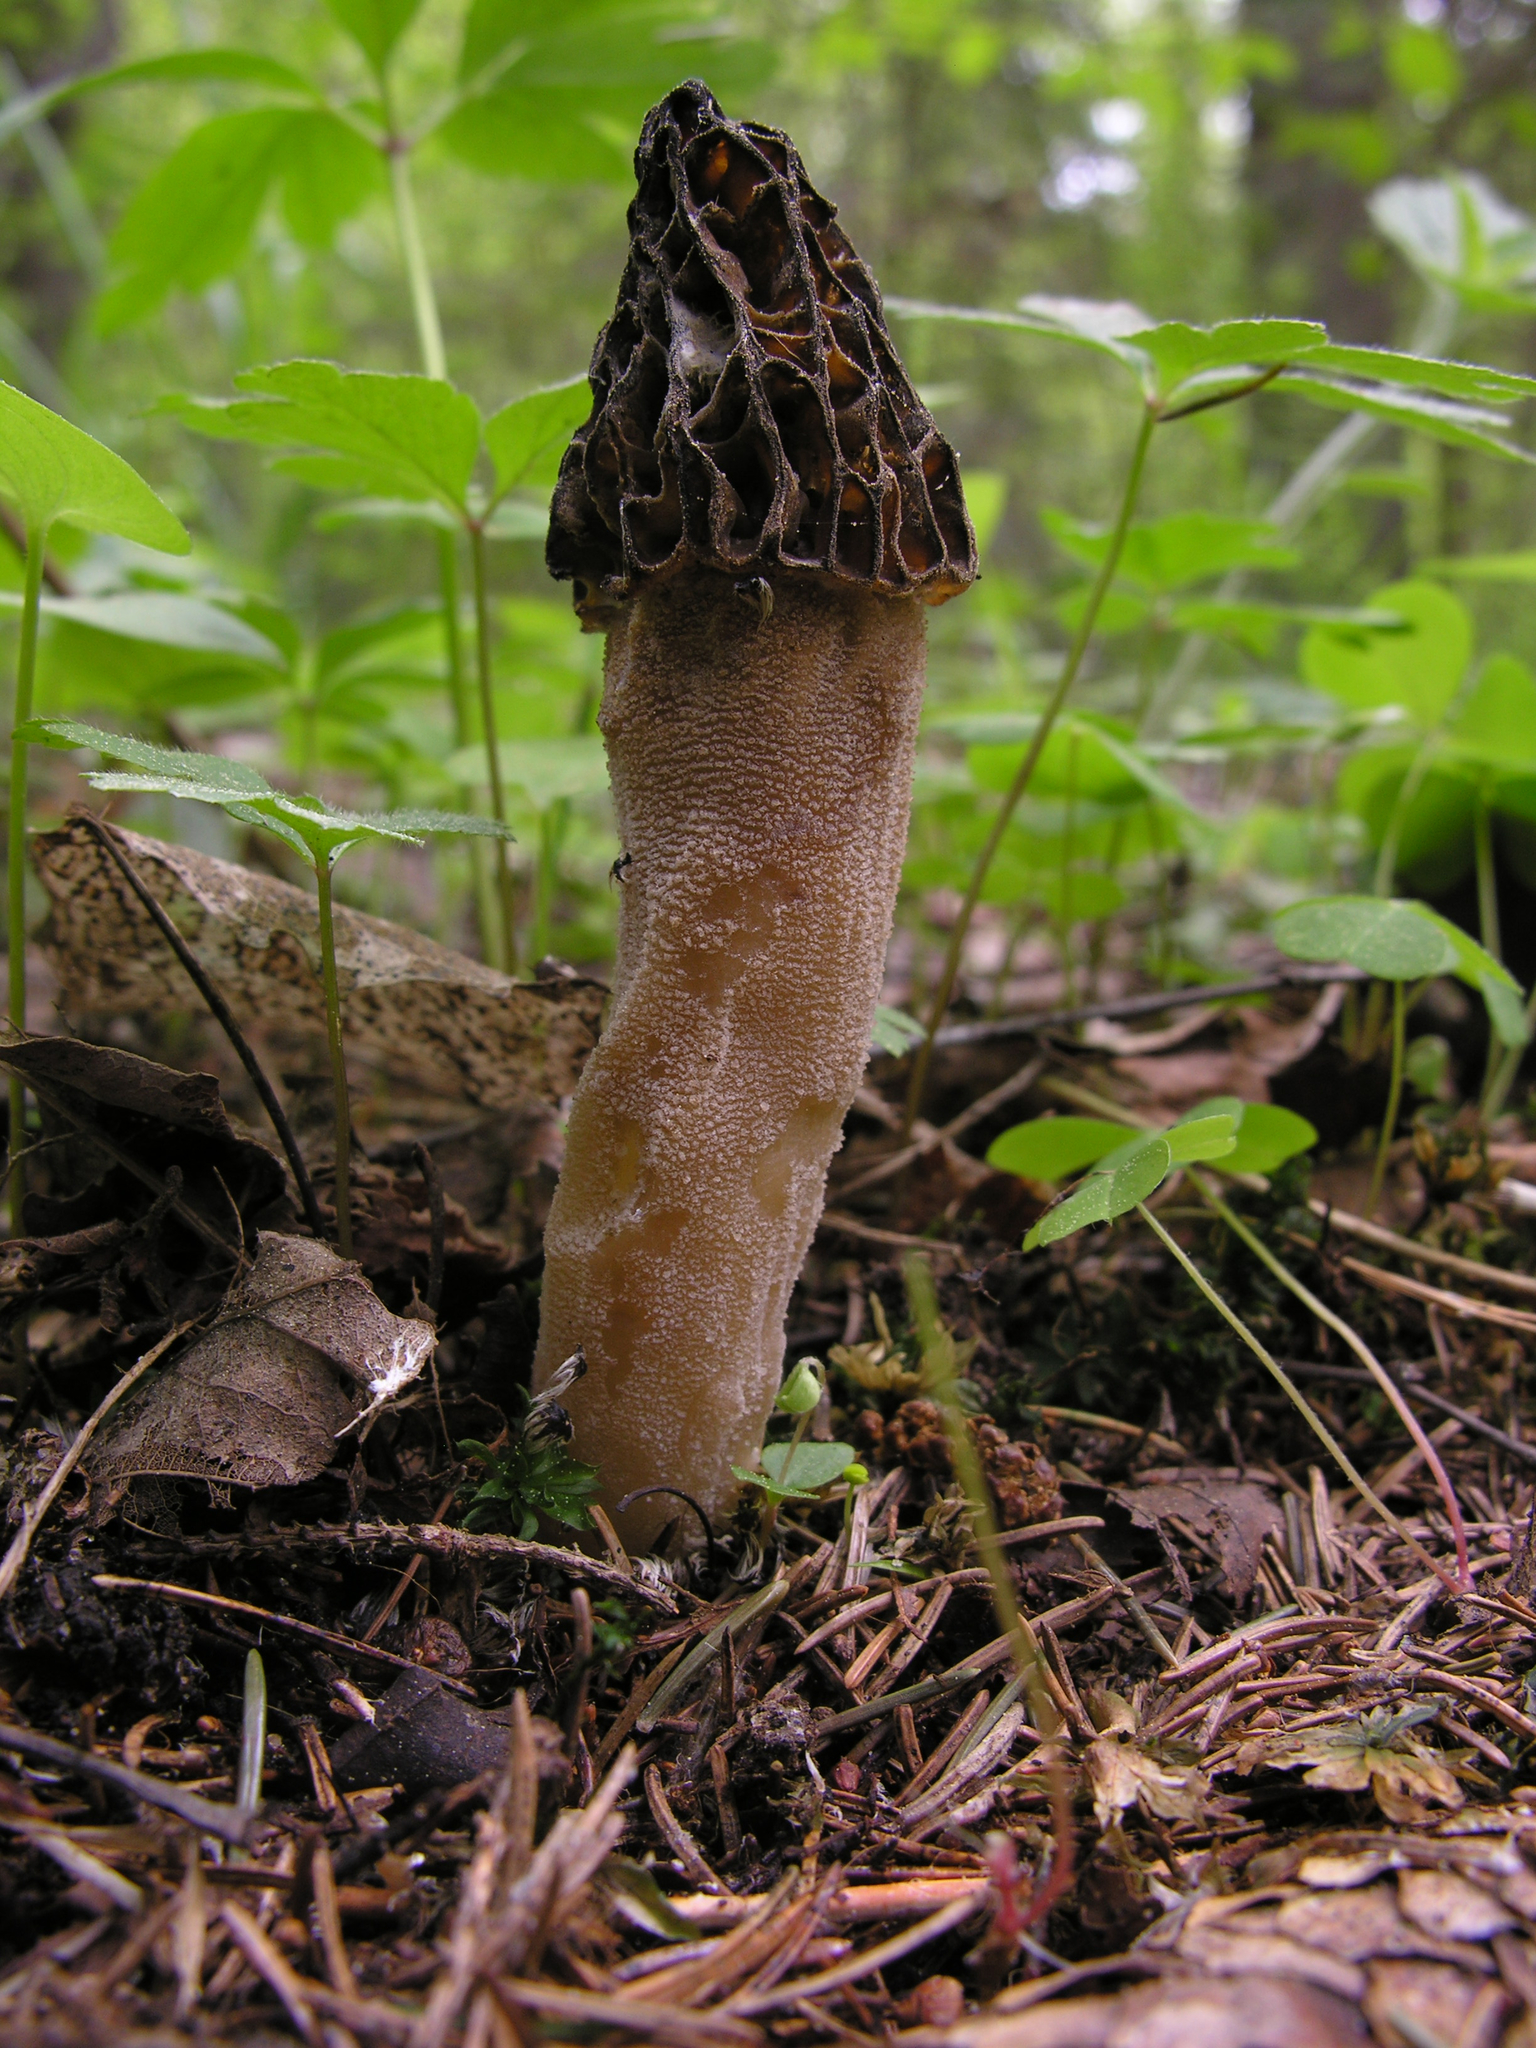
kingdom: Fungi
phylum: Ascomycota
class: Pezizomycetes
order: Pezizales
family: Morchellaceae
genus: Morchella
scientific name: Morchella
